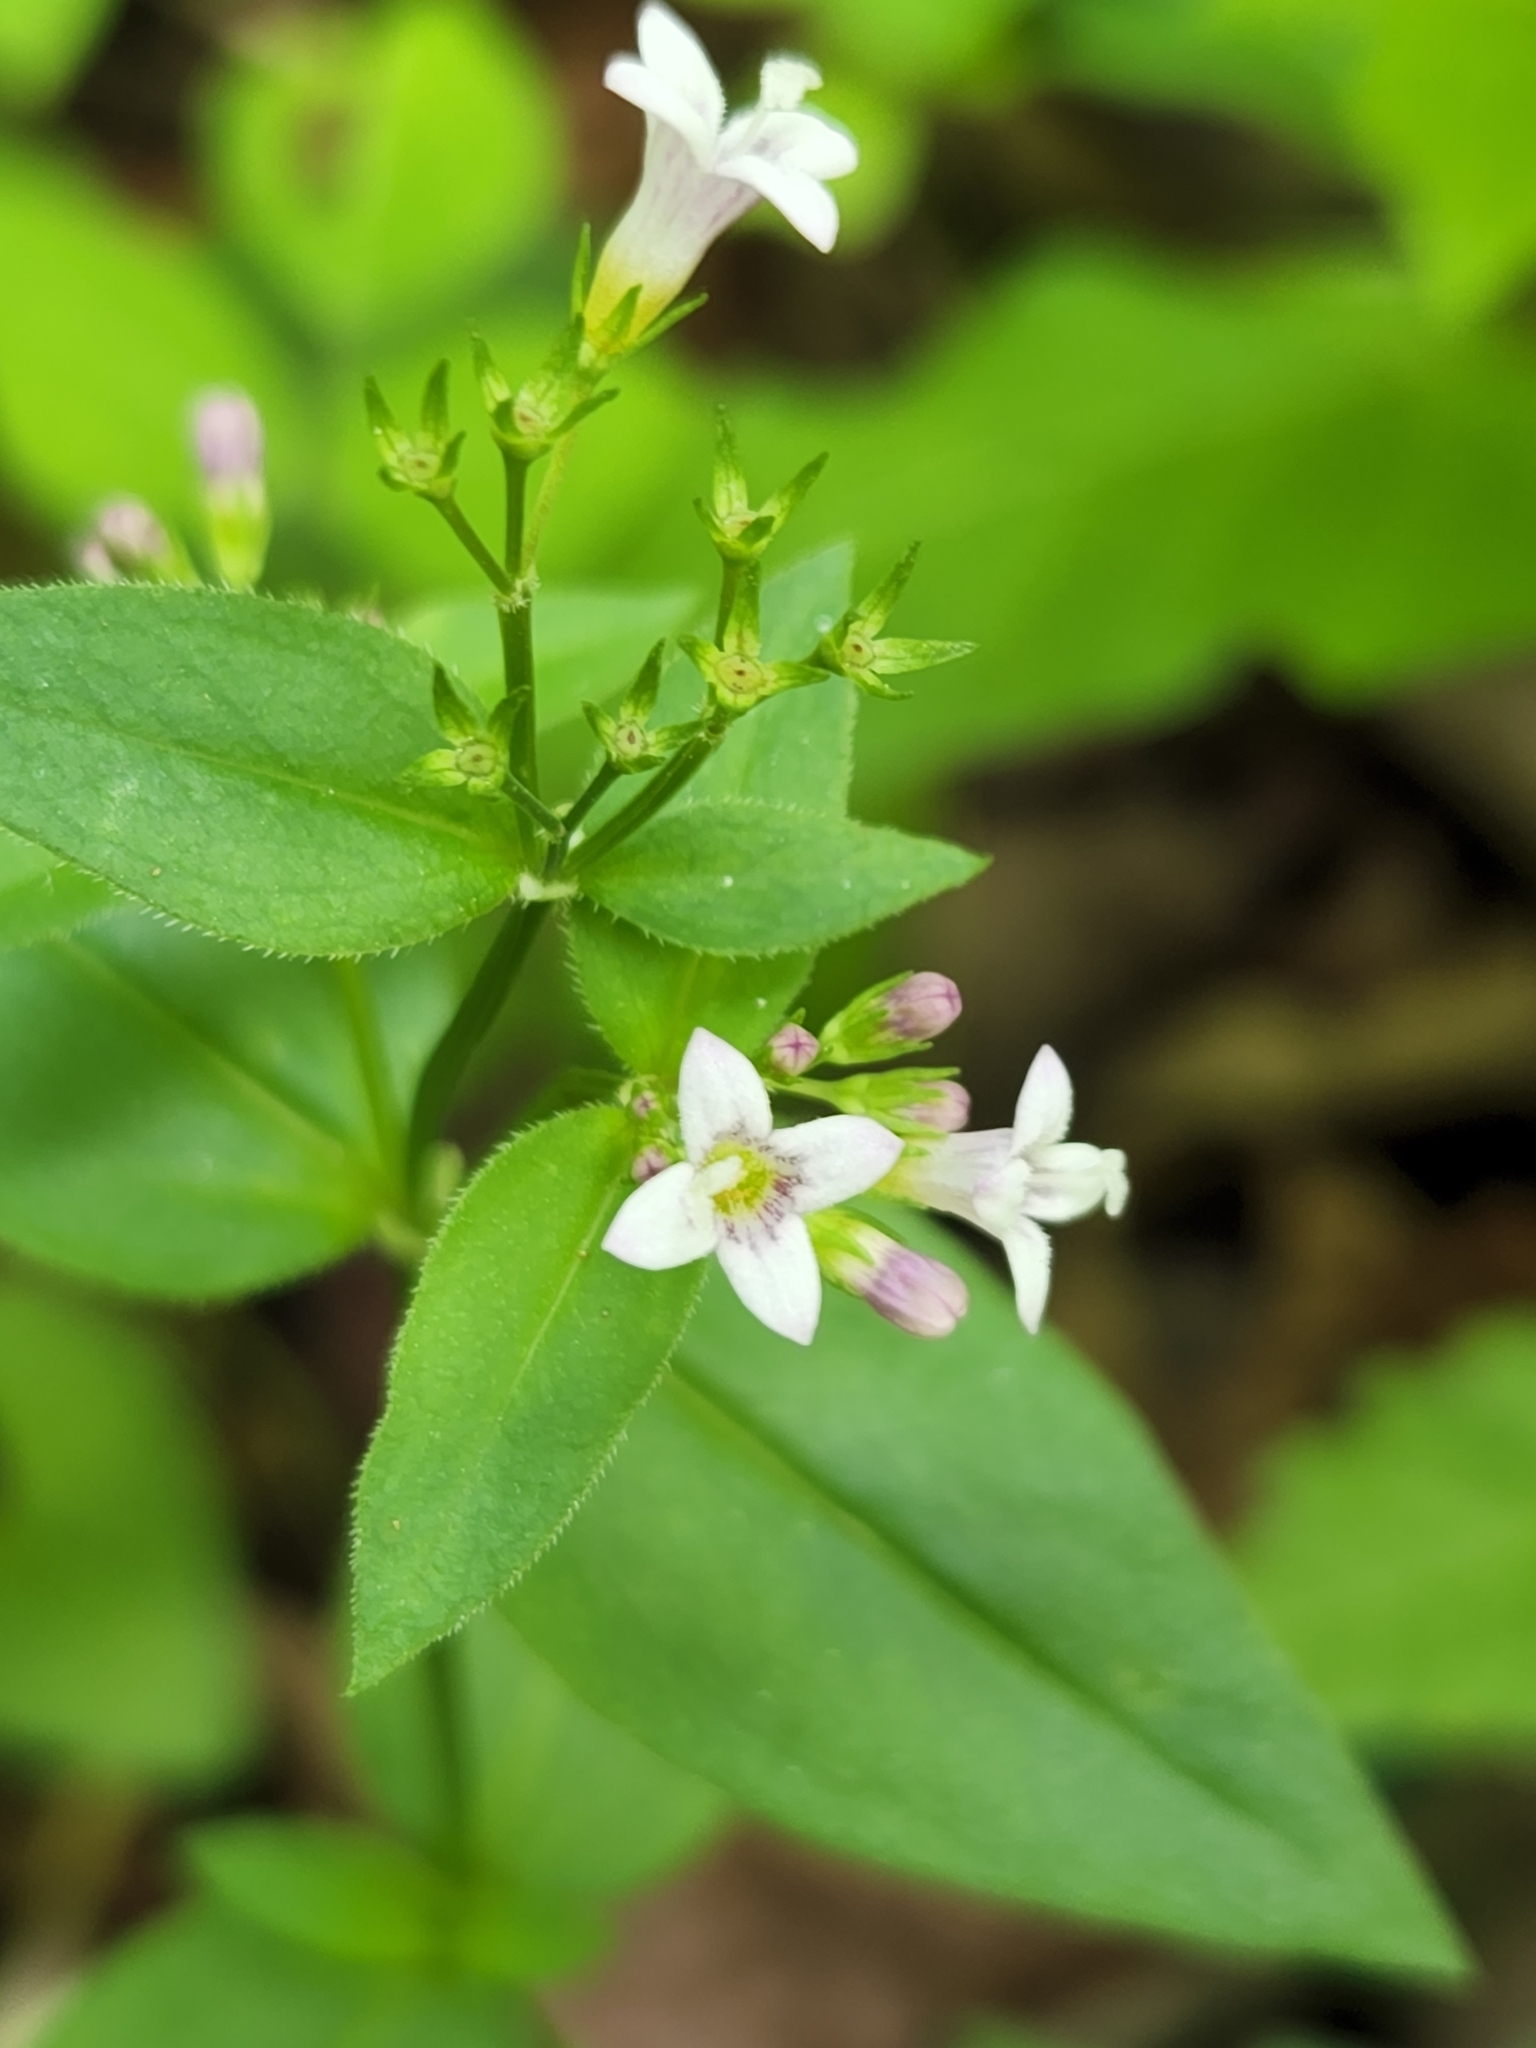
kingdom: Plantae
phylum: Tracheophyta
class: Magnoliopsida
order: Gentianales
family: Rubiaceae
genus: Houstonia
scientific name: Houstonia purpurea
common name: Summer bluet
